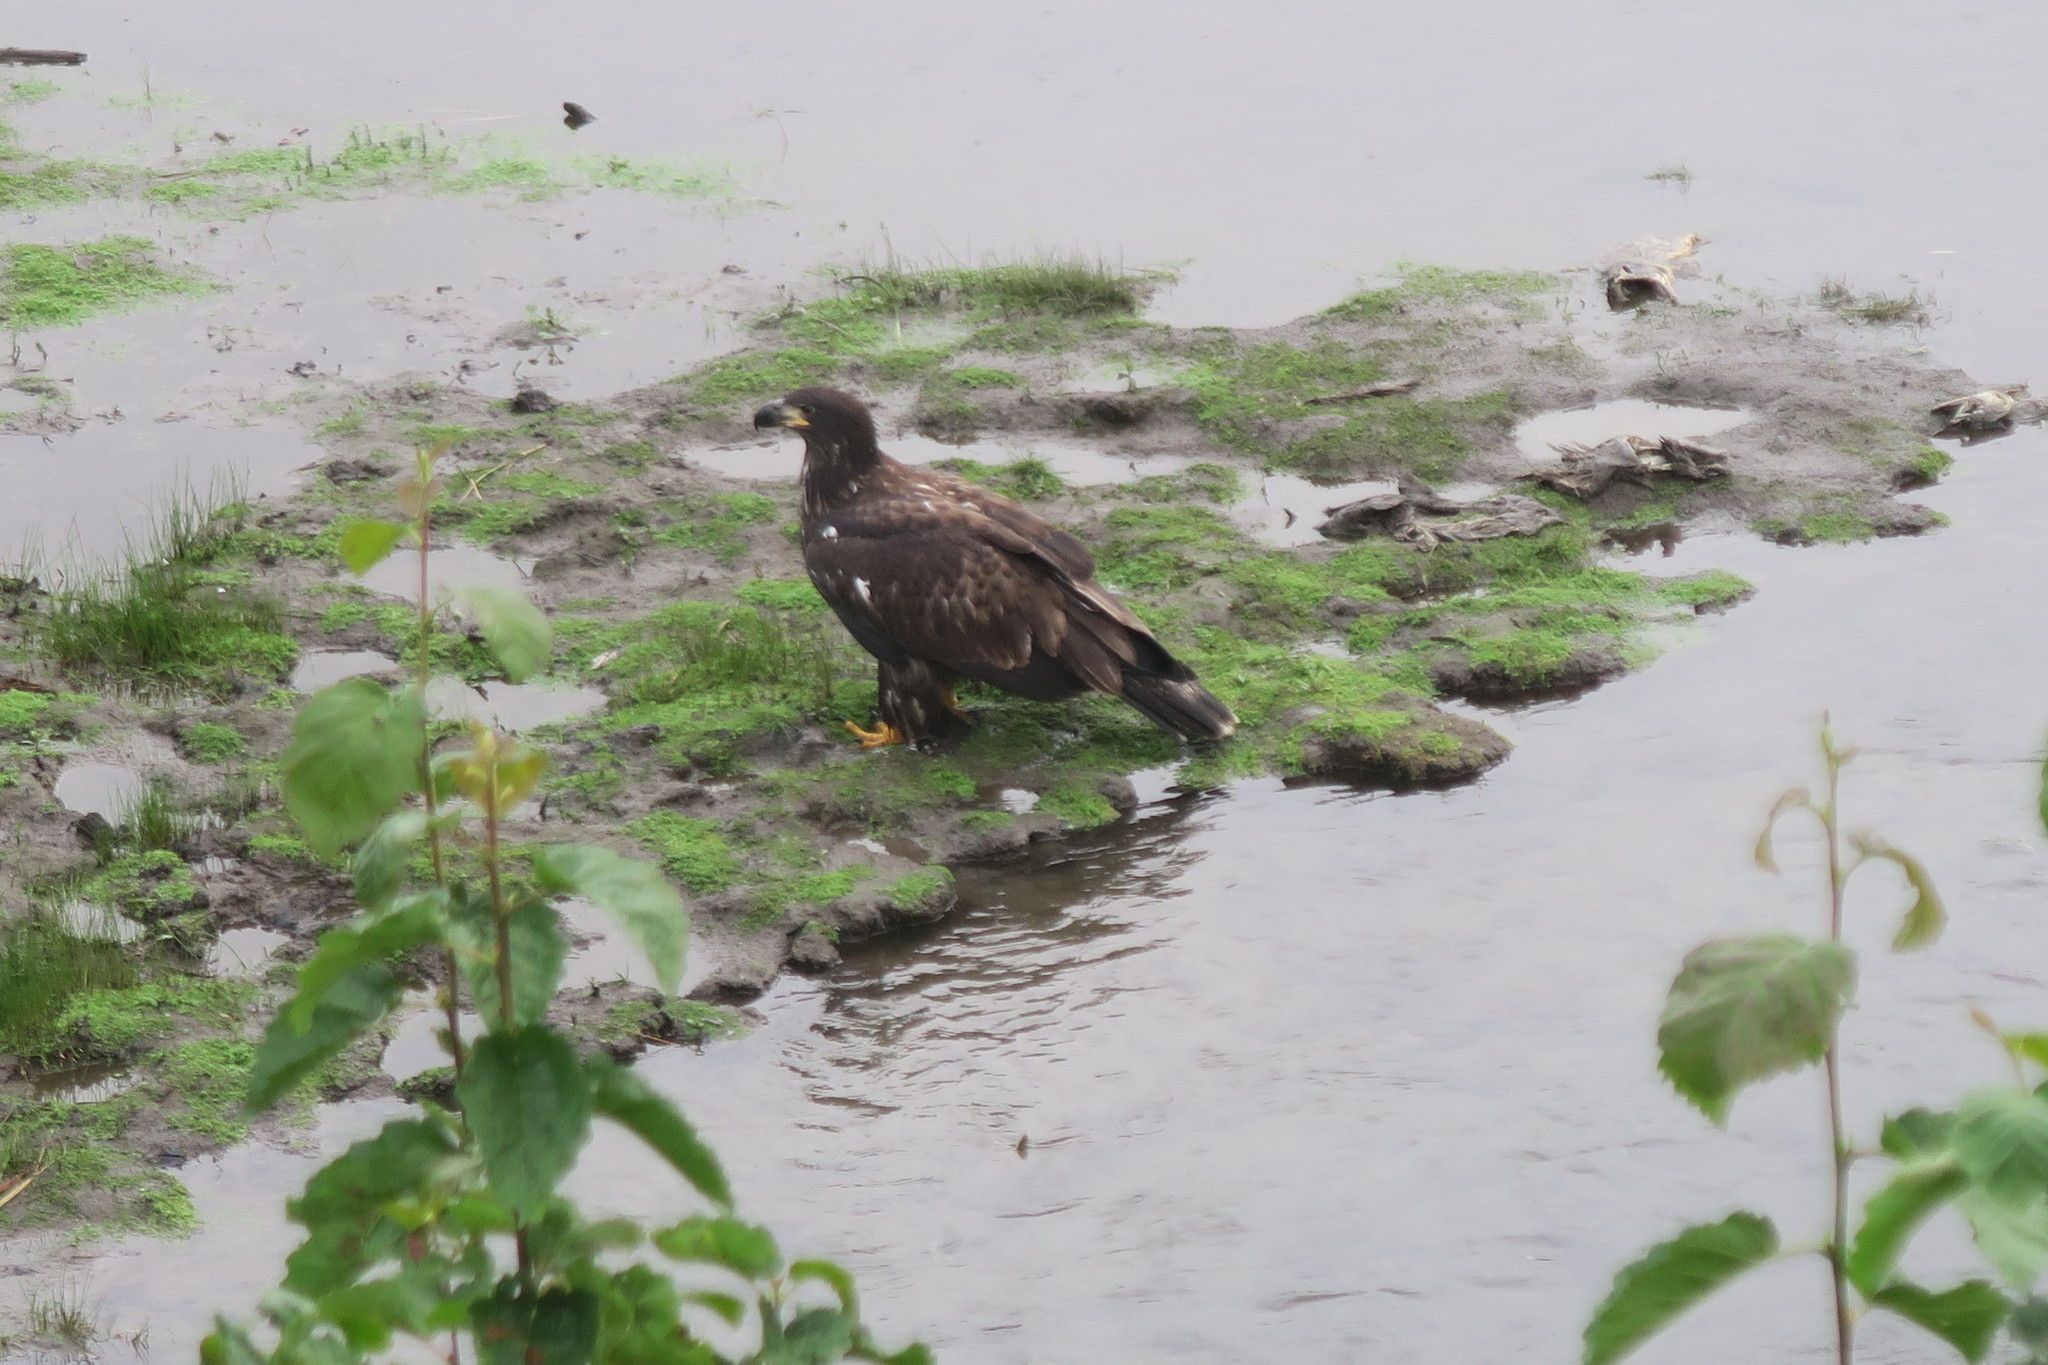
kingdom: Animalia
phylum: Chordata
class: Aves
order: Accipitriformes
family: Accipitridae
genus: Haliaeetus
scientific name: Haliaeetus leucocephalus
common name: Bald eagle
